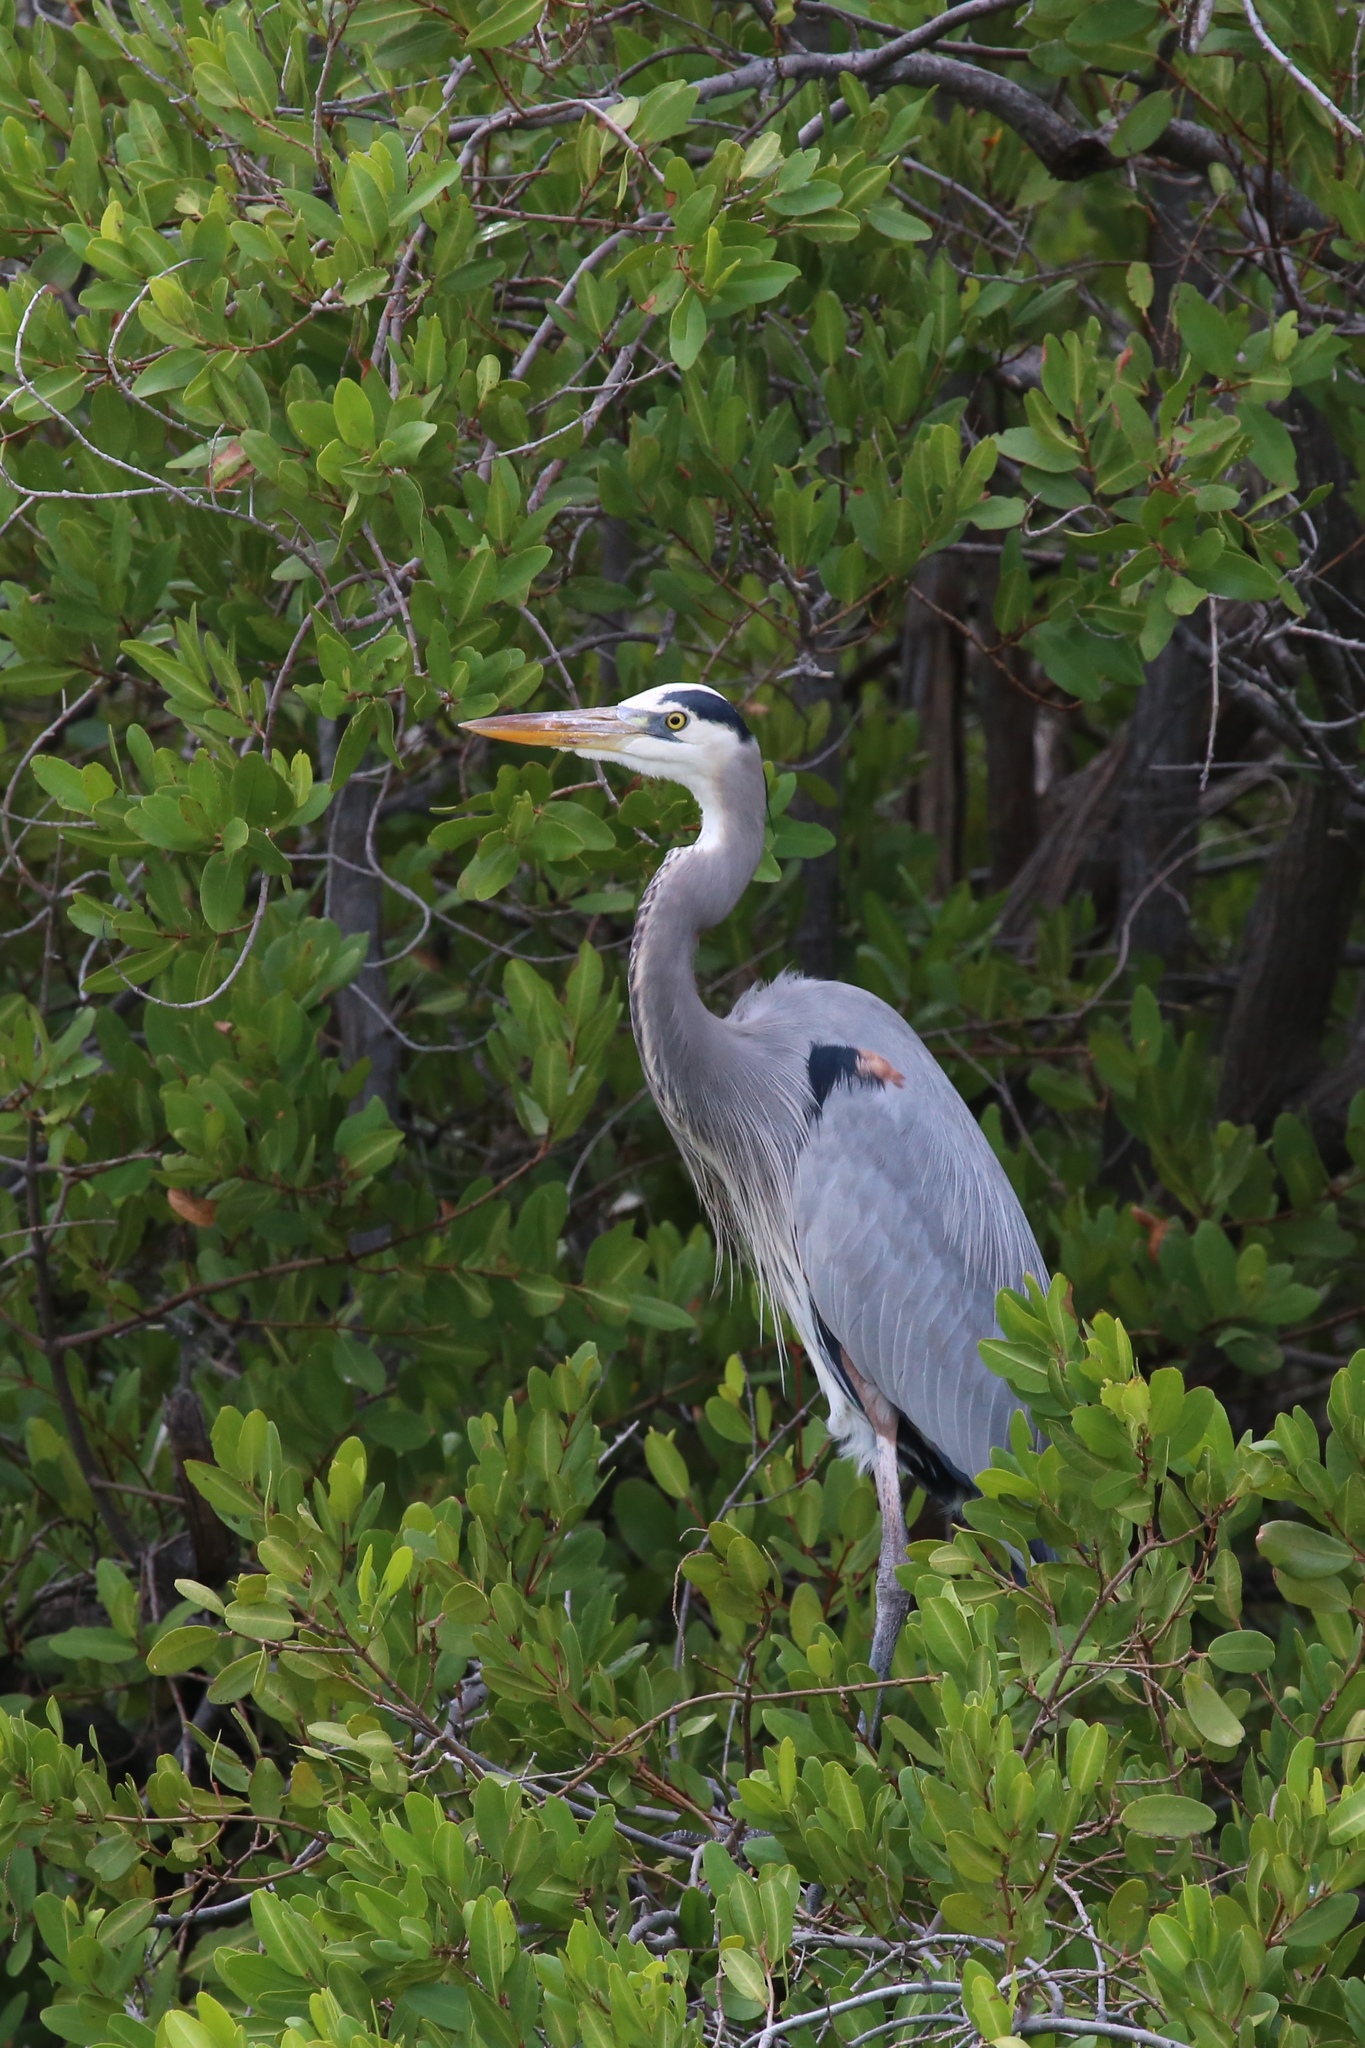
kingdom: Animalia
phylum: Chordata
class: Aves
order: Pelecaniformes
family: Ardeidae
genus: Ardea
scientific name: Ardea herodias
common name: Great blue heron
